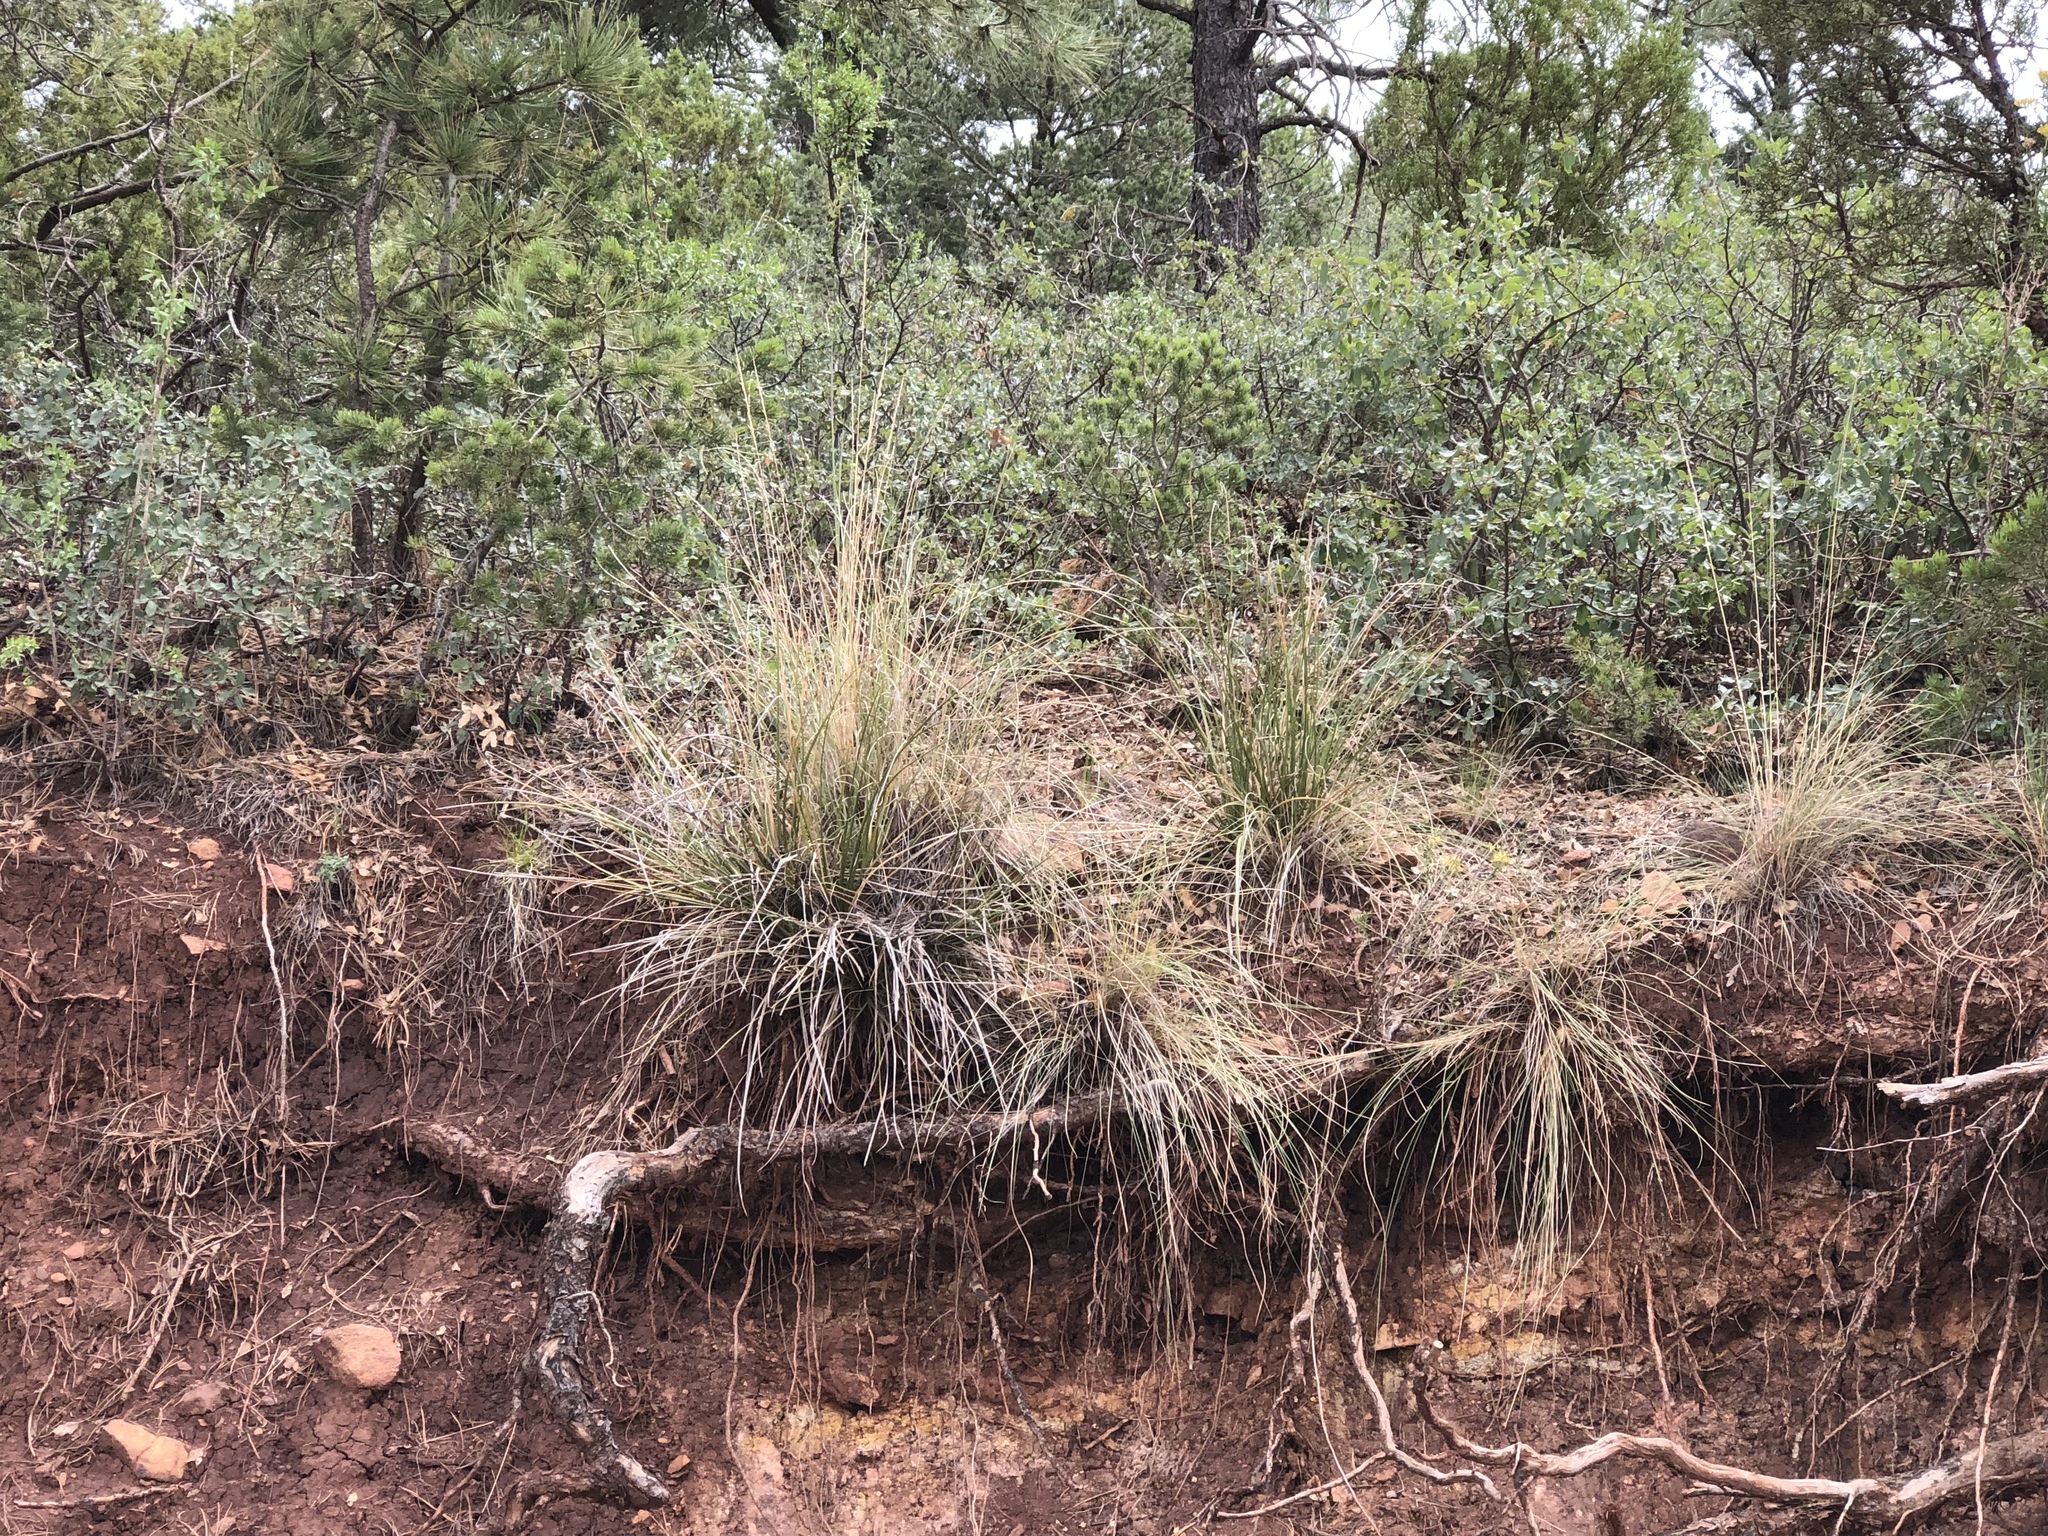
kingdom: Plantae
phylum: Tracheophyta
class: Liliopsida
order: Asparagales
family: Asparagaceae
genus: Nolina
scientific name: Nolina microcarpa
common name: Bear-grass
